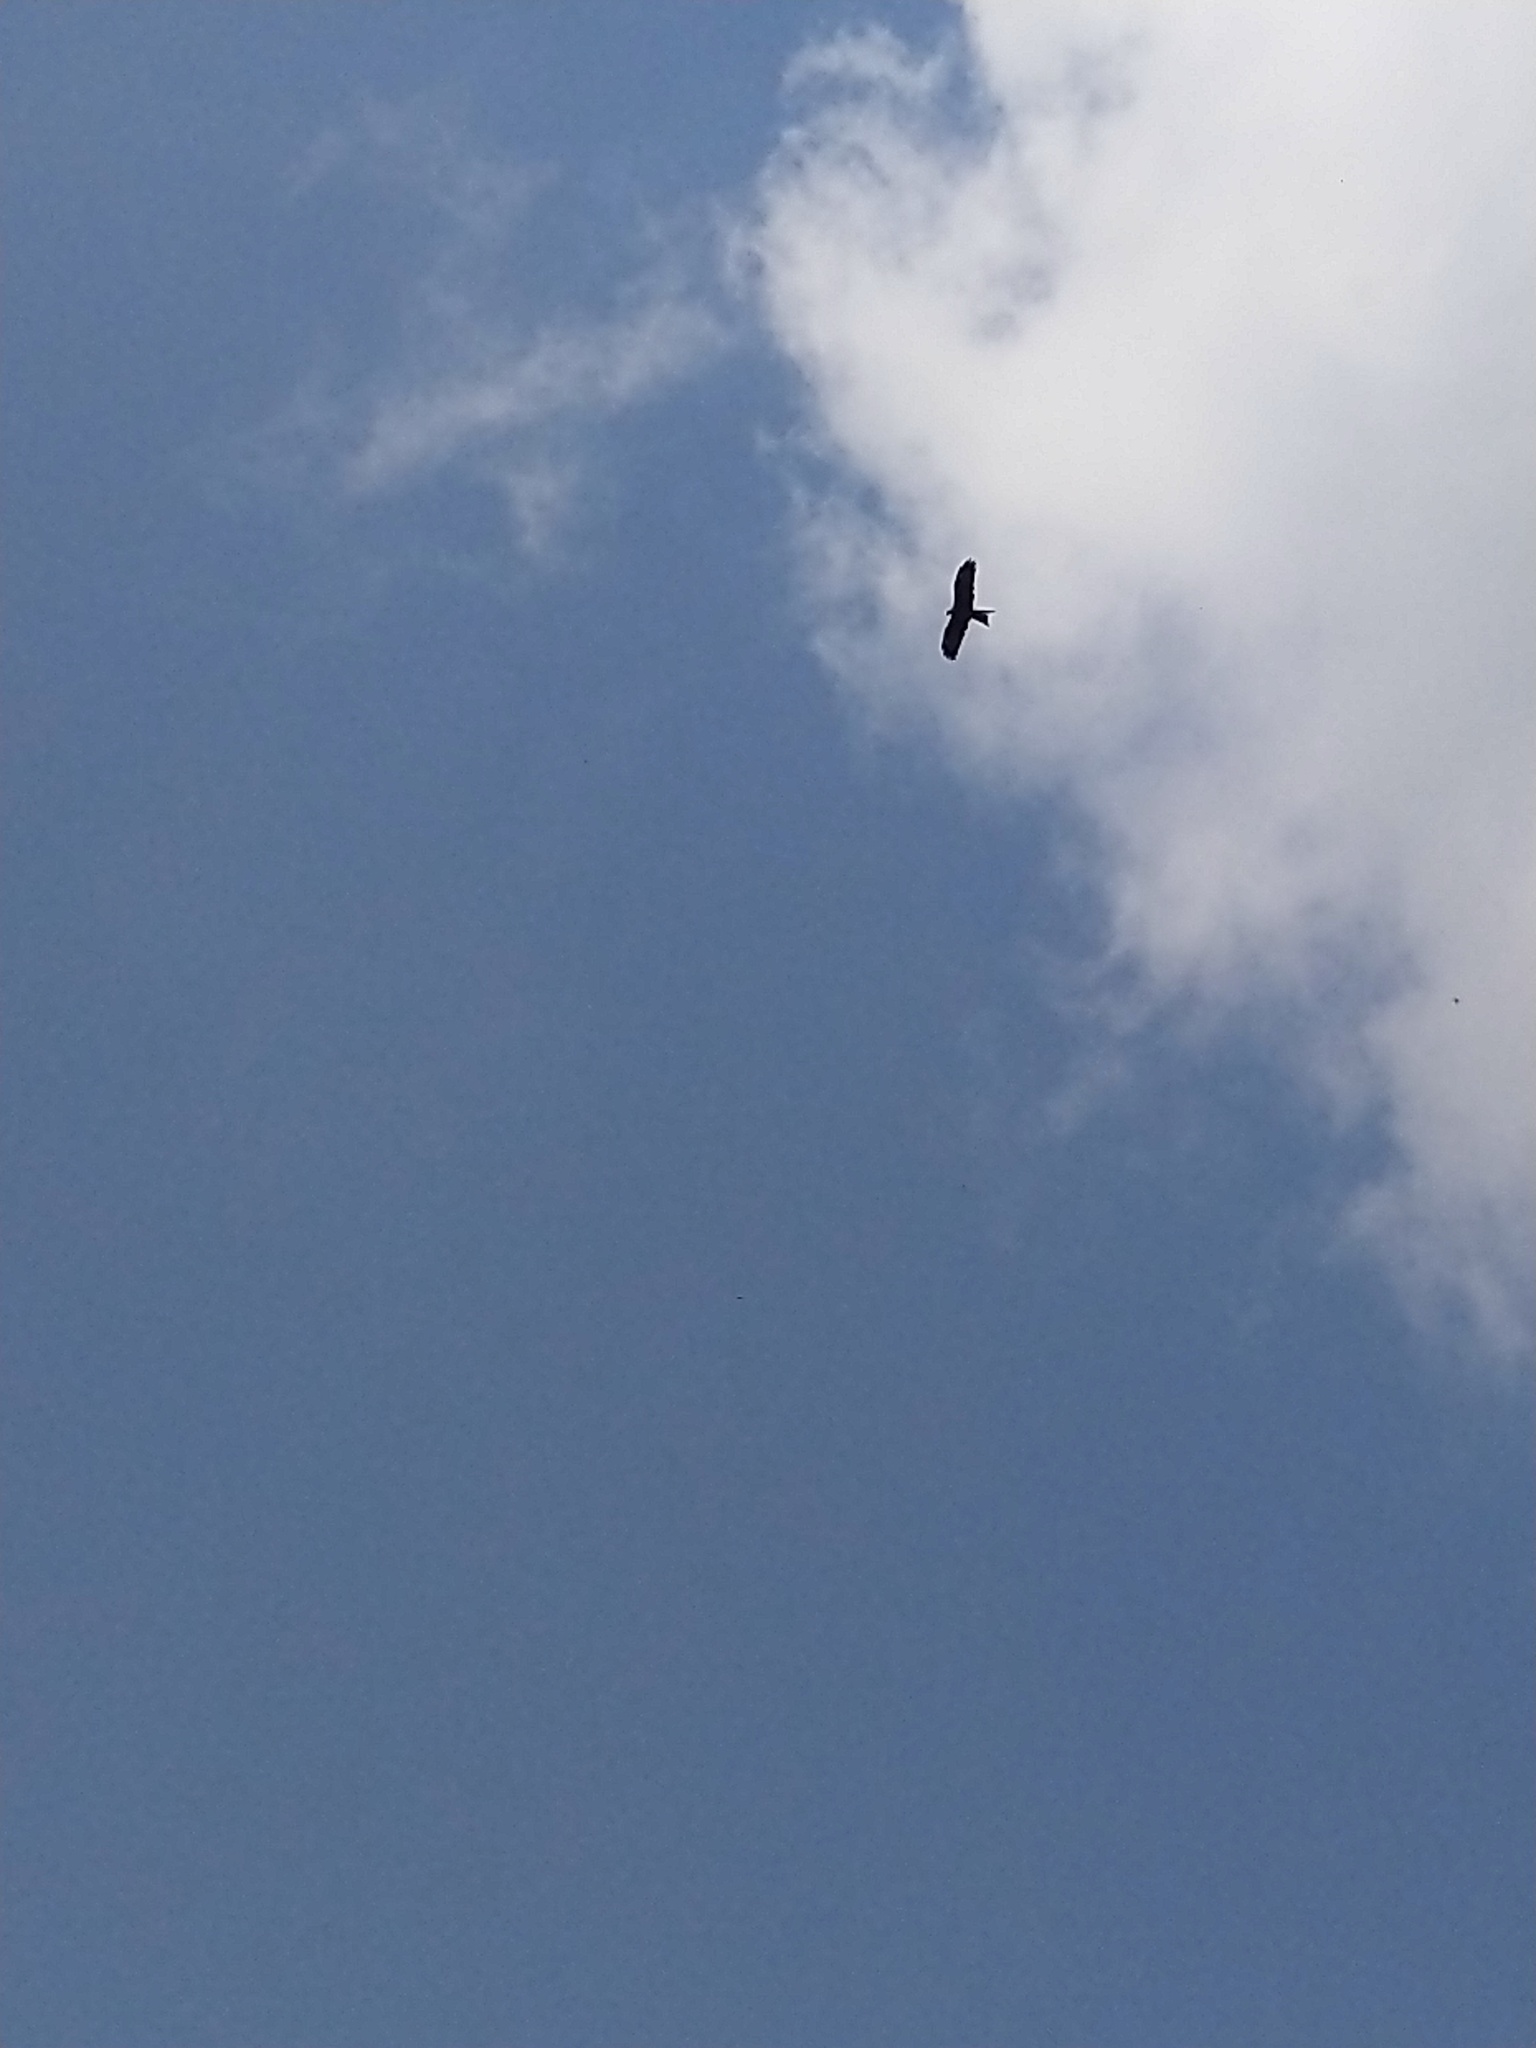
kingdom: Animalia
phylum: Chordata
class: Aves
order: Accipitriformes
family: Accipitridae
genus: Milvus
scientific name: Milvus migrans
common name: Black kite
